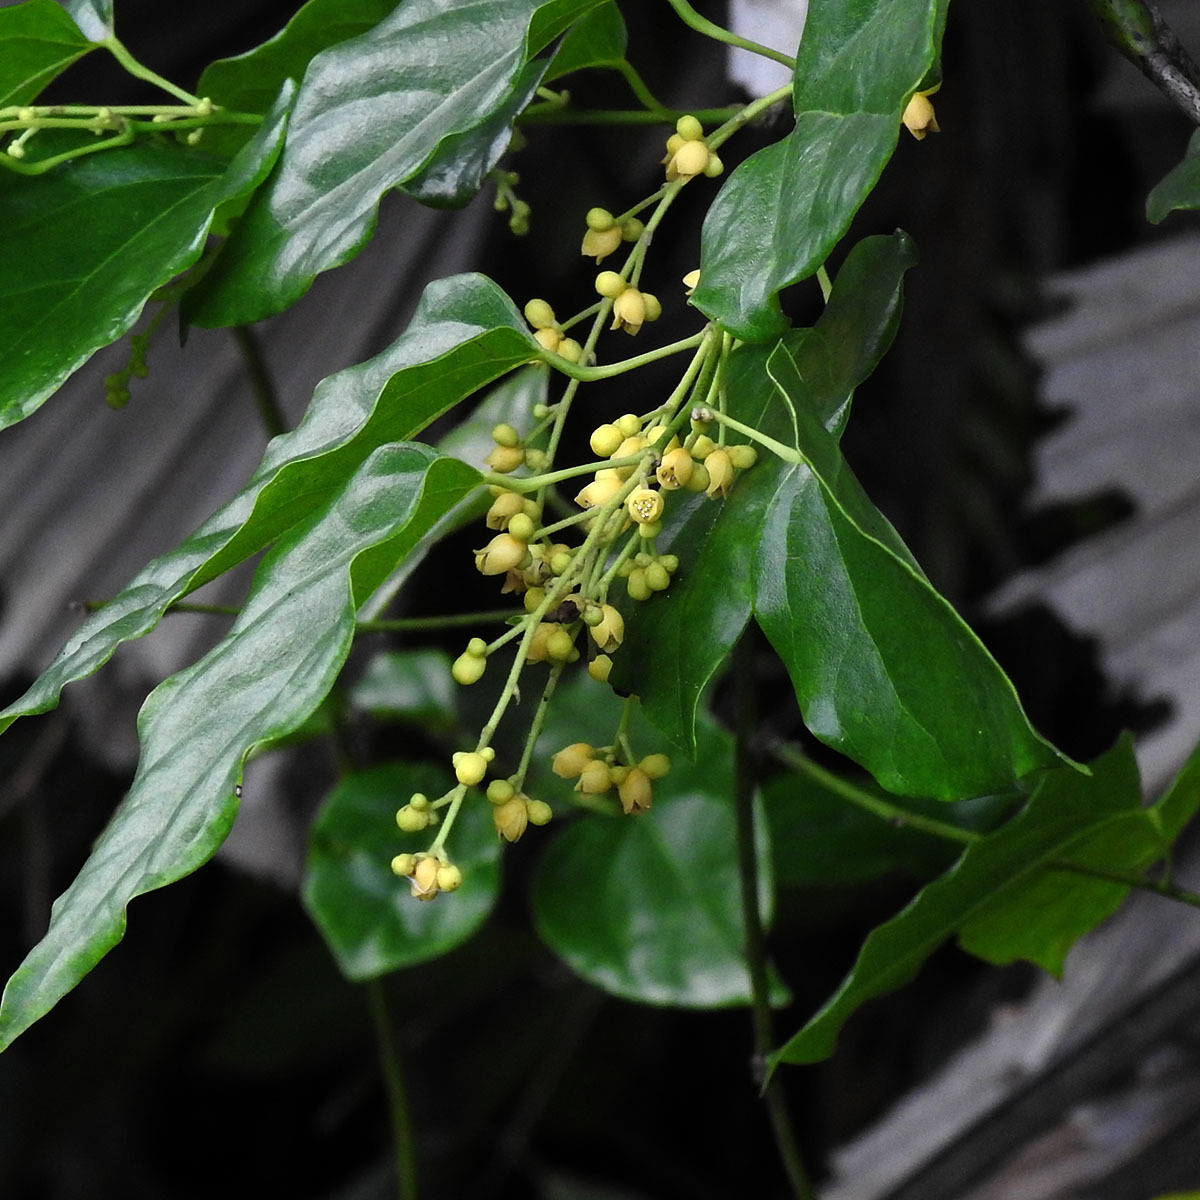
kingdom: Plantae
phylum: Tracheophyta
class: Magnoliopsida
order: Ranunculales
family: Menispermaceae
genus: Tiliacora
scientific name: Tiliacora acuminata
